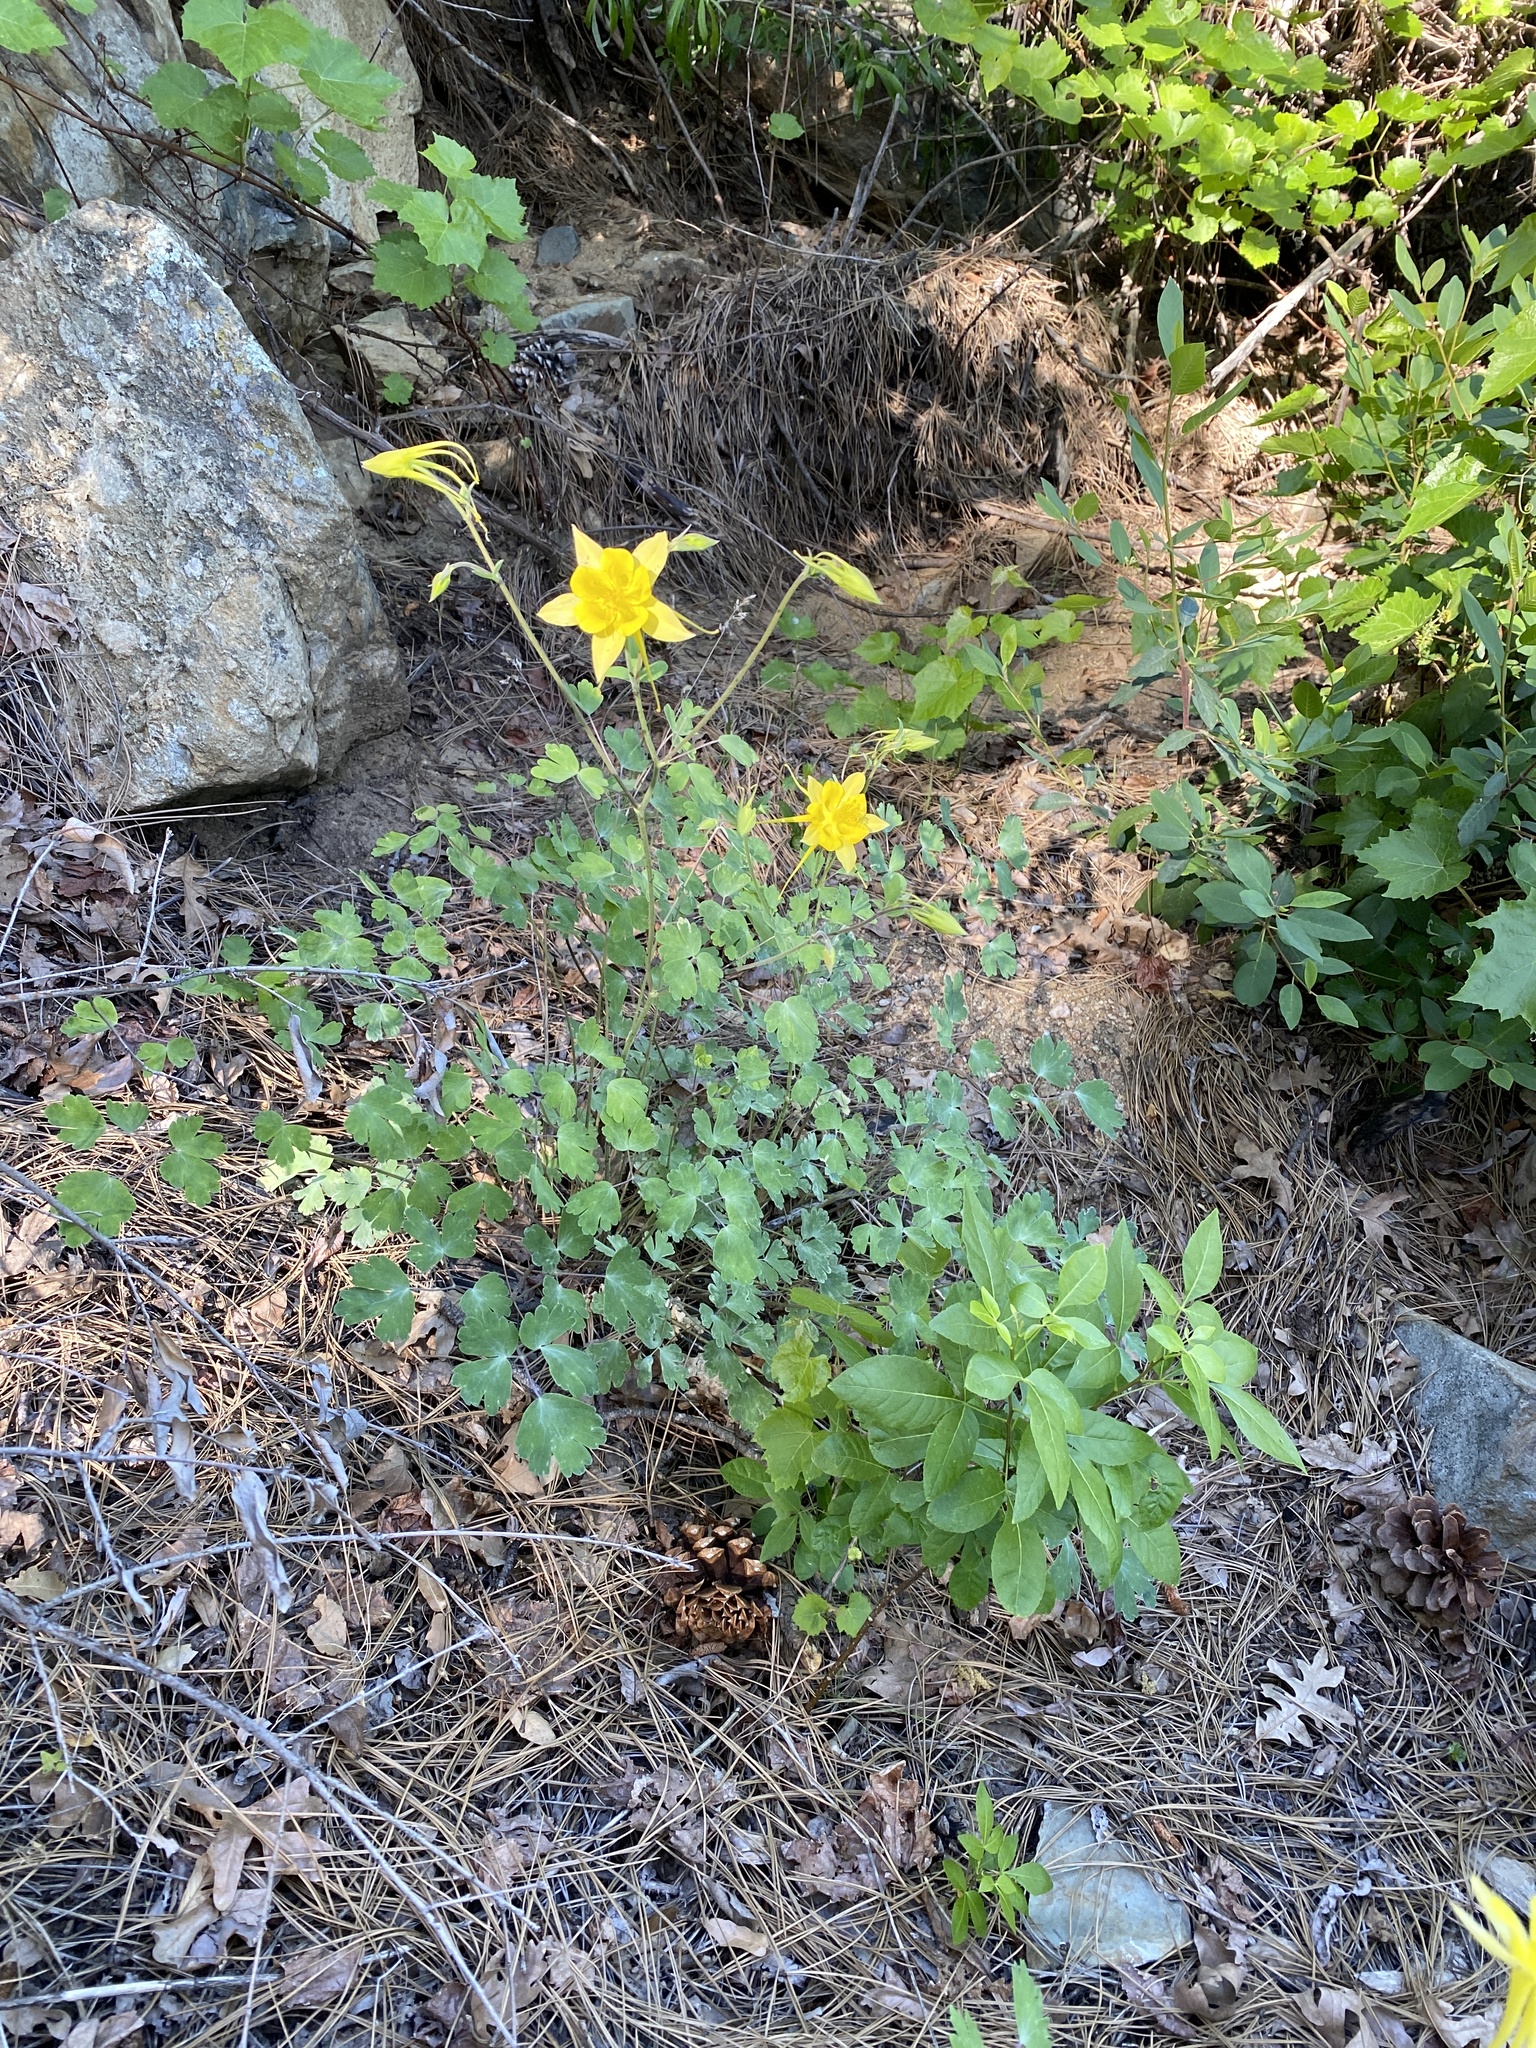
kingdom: Plantae
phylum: Tracheophyta
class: Magnoliopsida
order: Ranunculales
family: Ranunculaceae
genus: Aquilegia
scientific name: Aquilegia chrysantha
